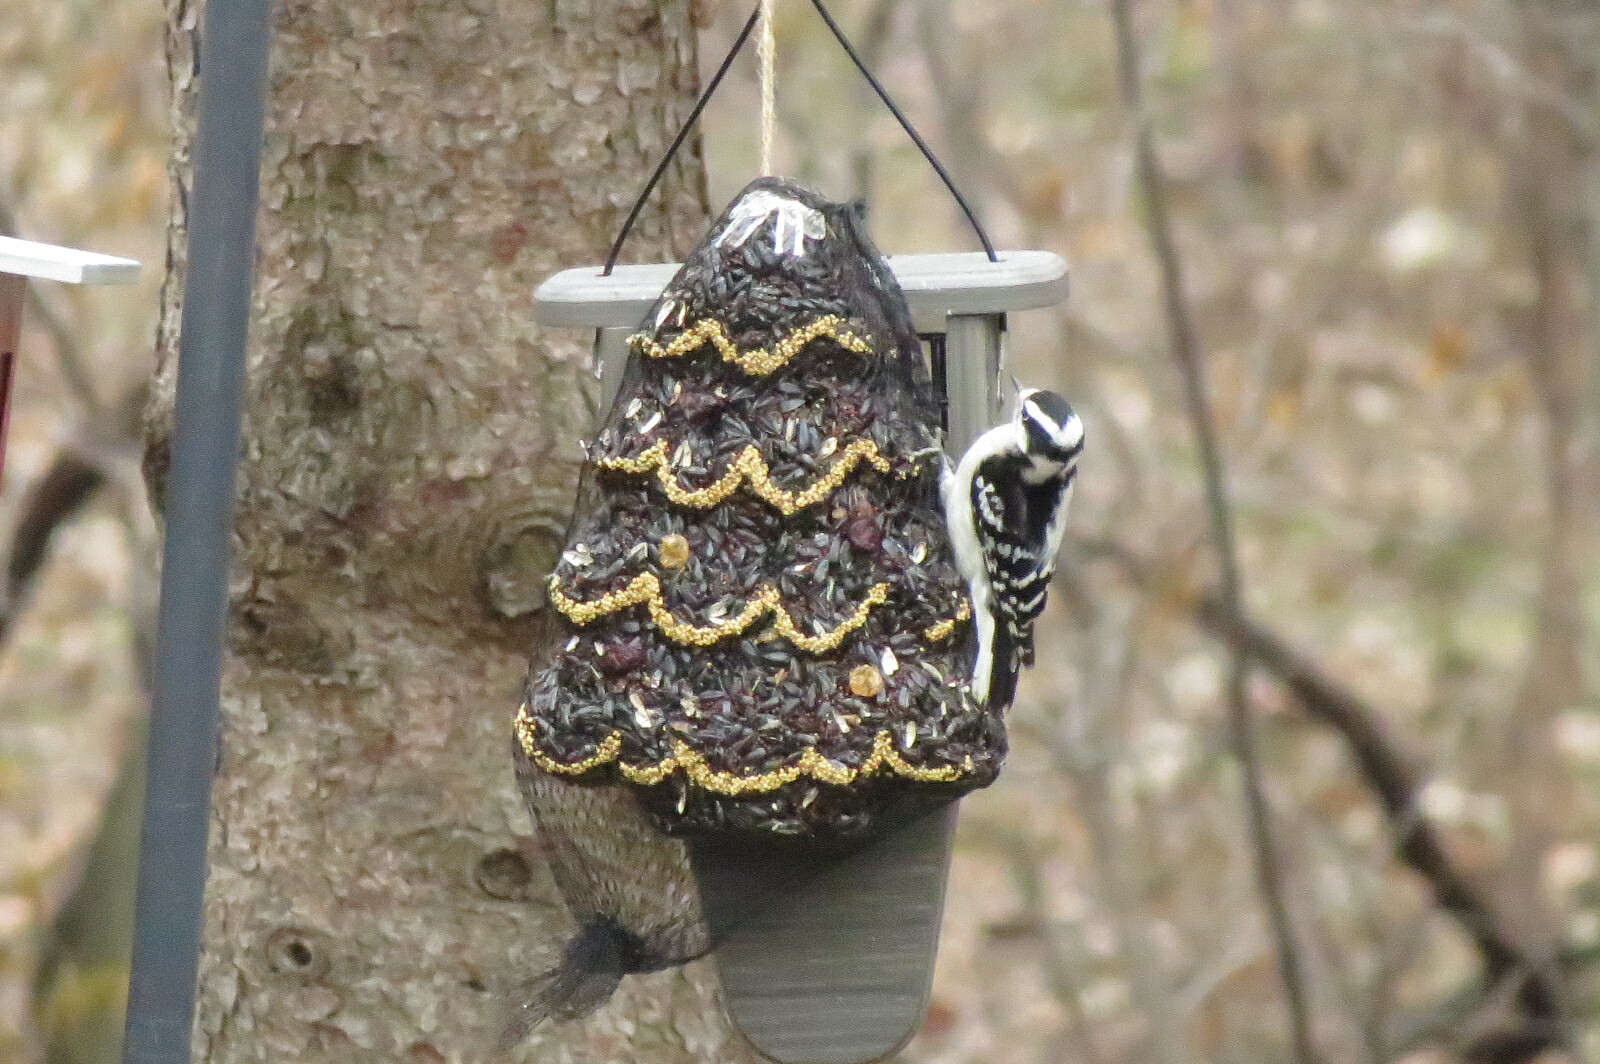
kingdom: Animalia
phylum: Chordata
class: Aves
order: Piciformes
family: Picidae
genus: Dryobates
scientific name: Dryobates pubescens
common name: Downy woodpecker
